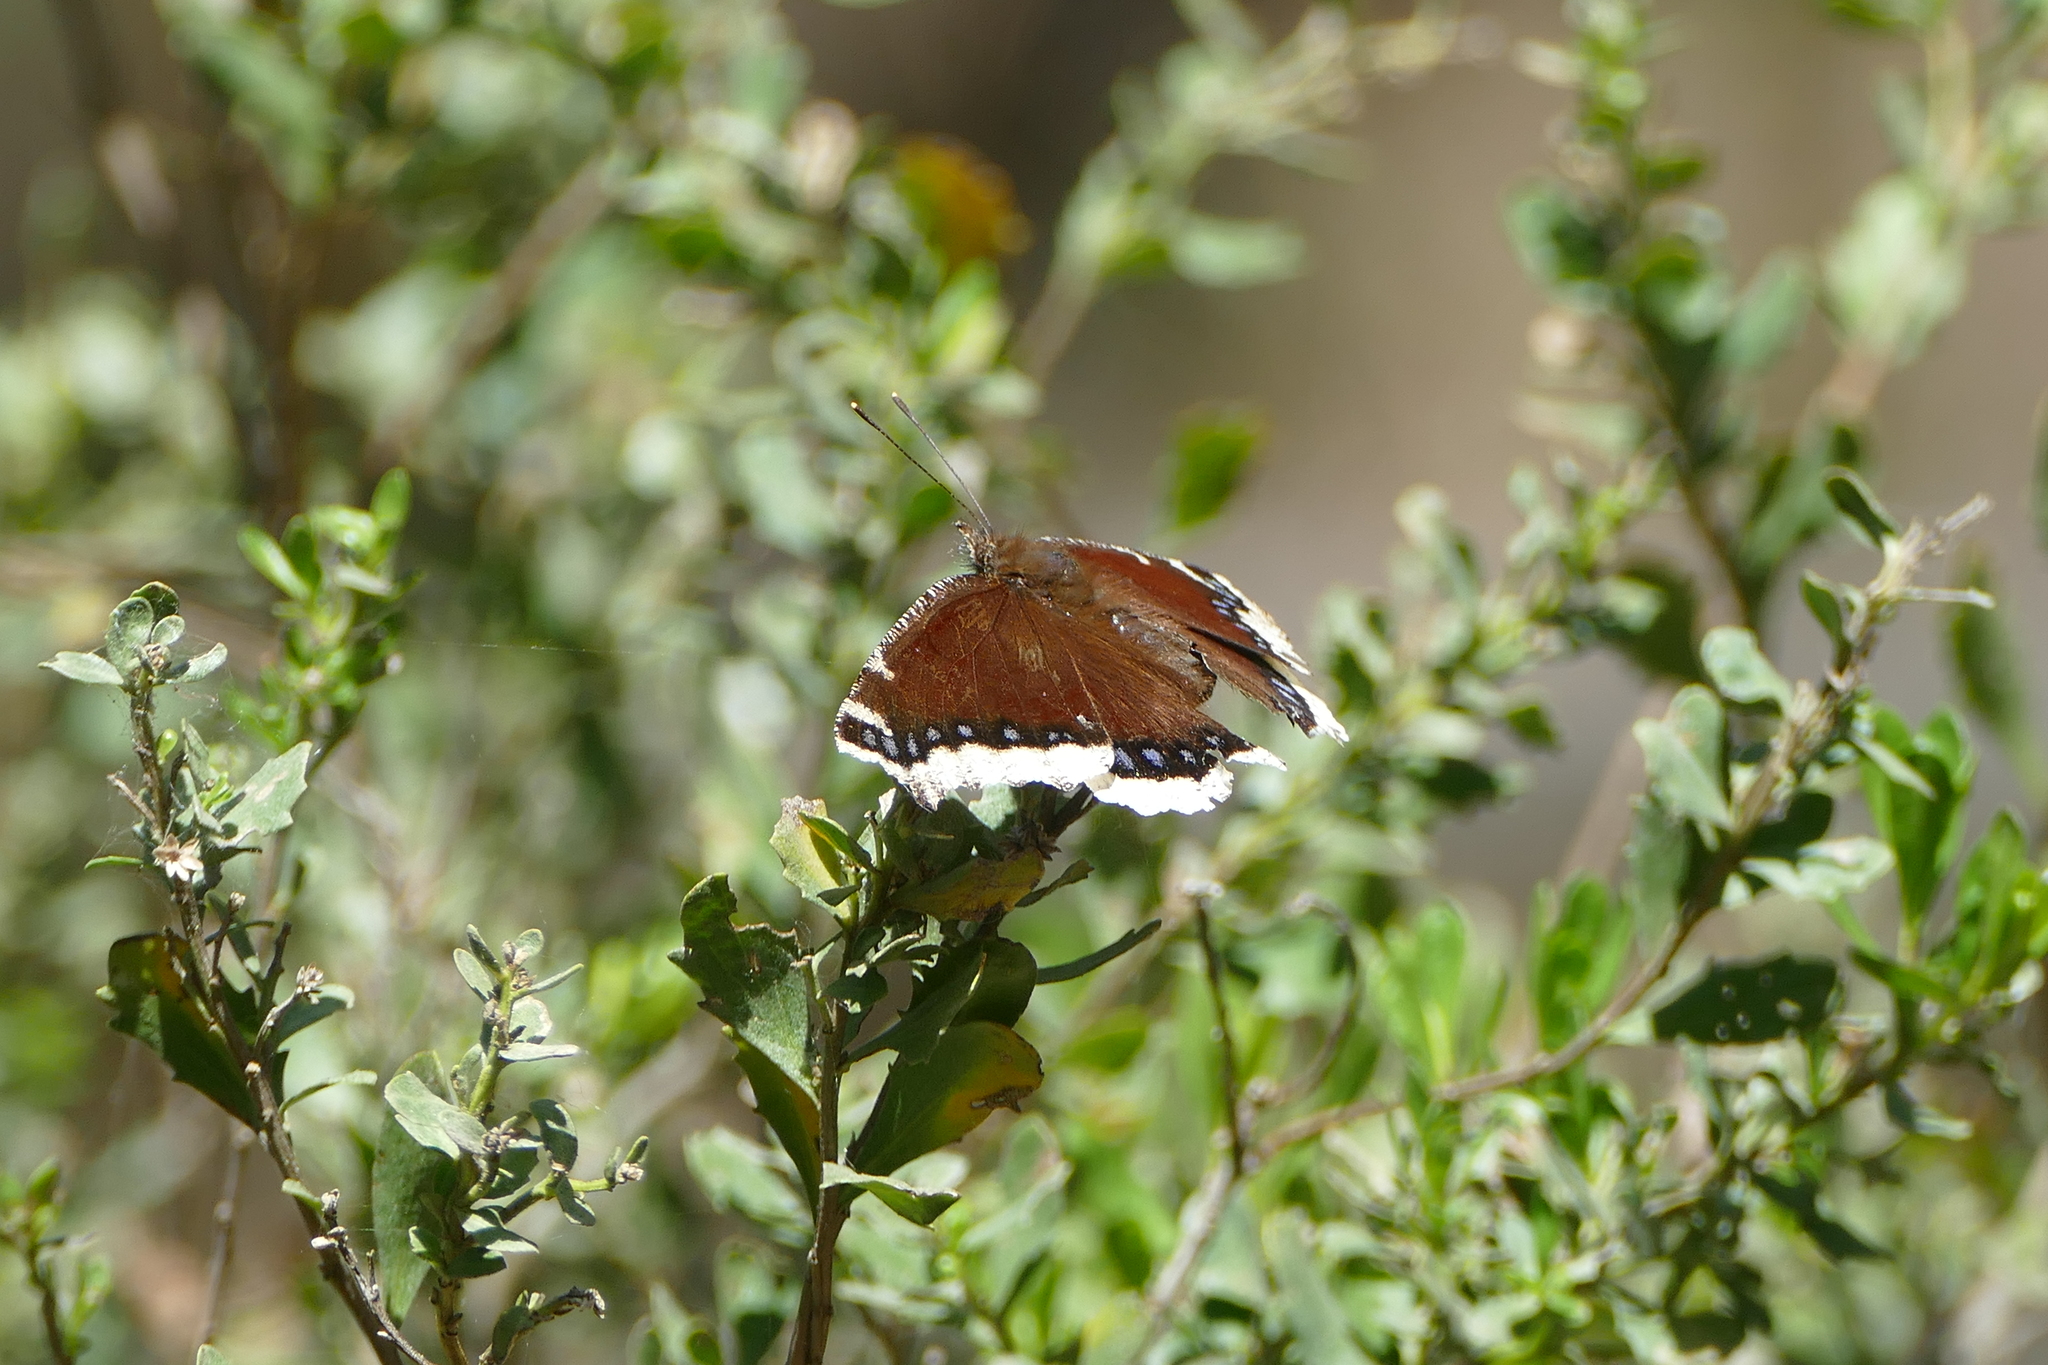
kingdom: Animalia
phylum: Arthropoda
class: Insecta
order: Lepidoptera
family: Nymphalidae
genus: Nymphalis
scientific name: Nymphalis antiopa
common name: Camberwell beauty
